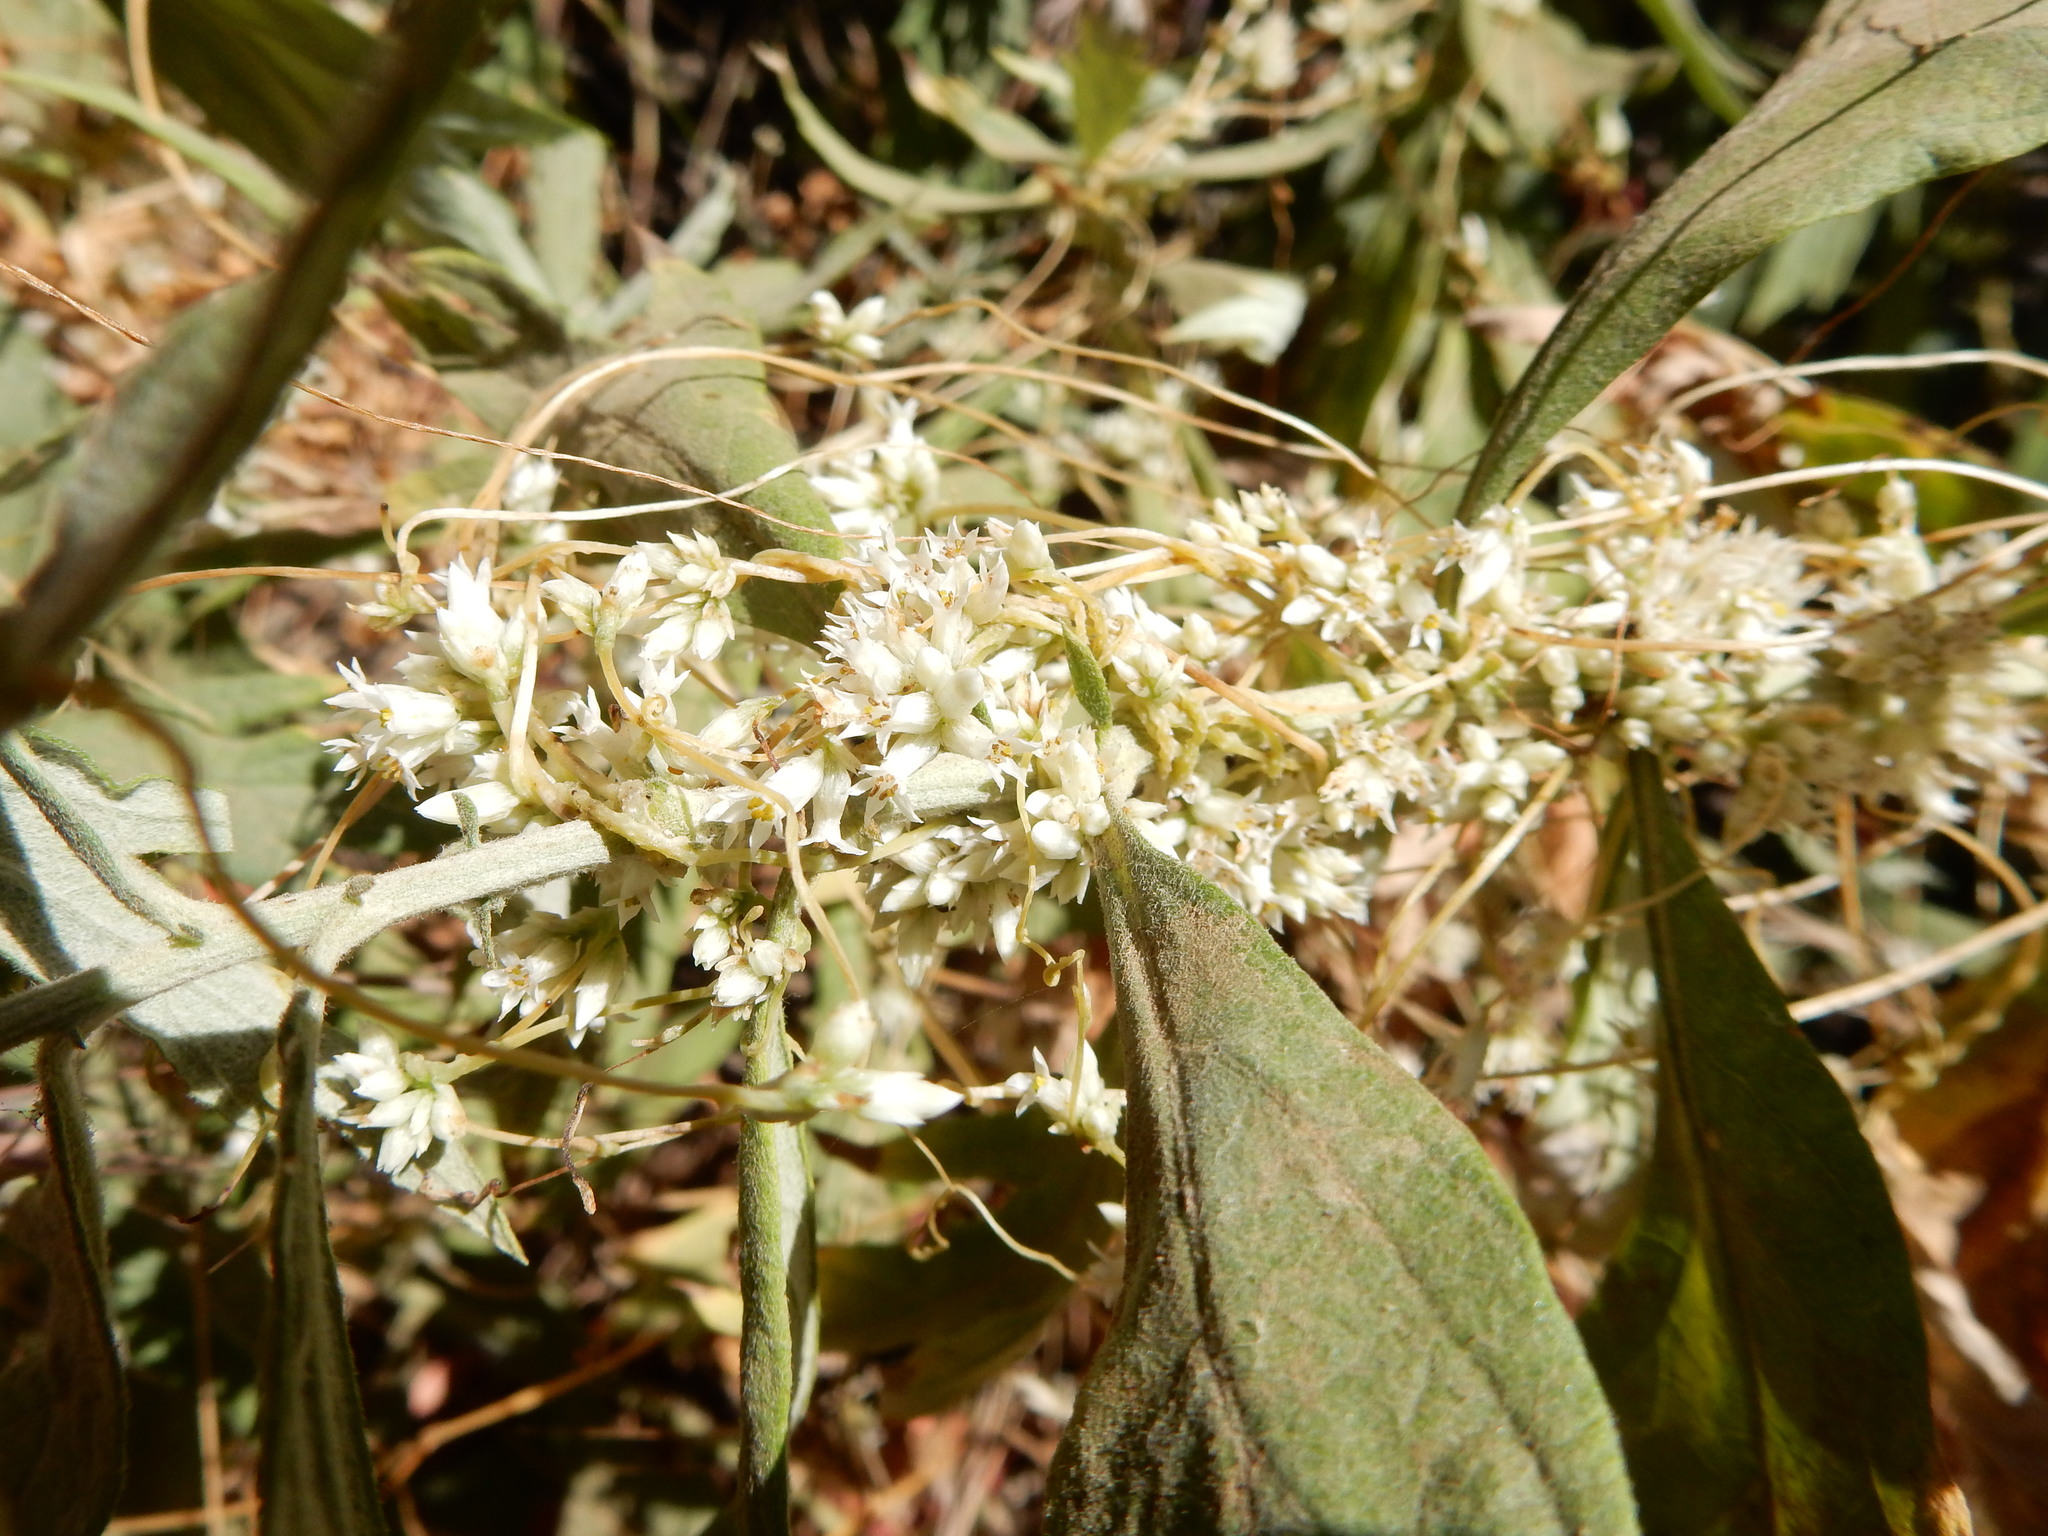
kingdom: Plantae
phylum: Tracheophyta
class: Magnoliopsida
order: Solanales
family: Convolvulaceae
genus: Cuscuta
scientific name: Cuscuta subinclusa
